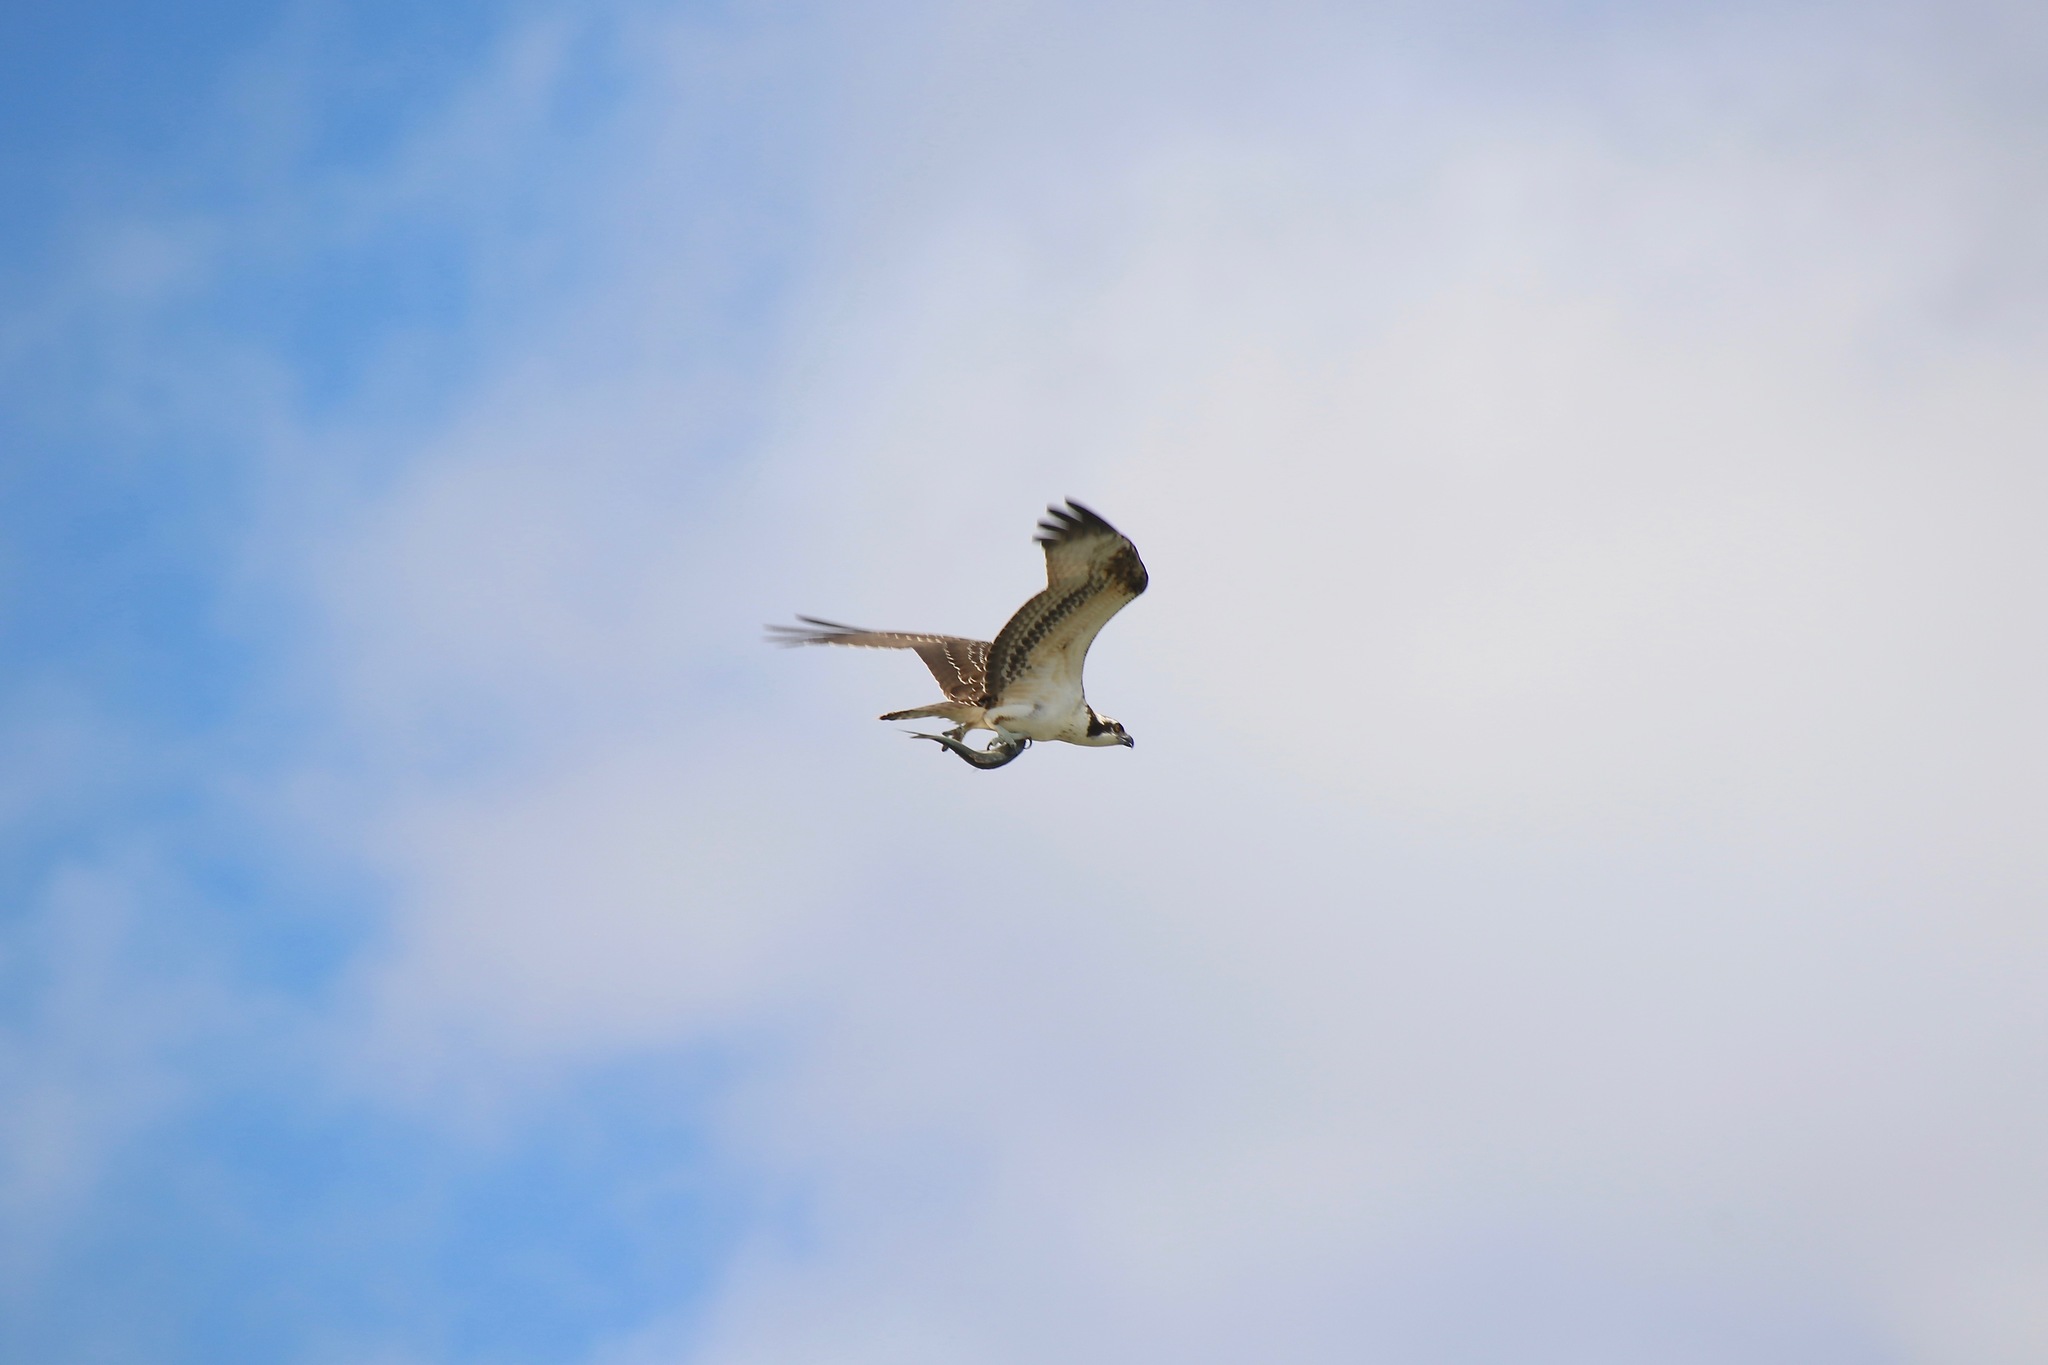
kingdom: Animalia
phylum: Chordata
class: Aves
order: Accipitriformes
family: Pandionidae
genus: Pandion
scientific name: Pandion haliaetus
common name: Osprey
